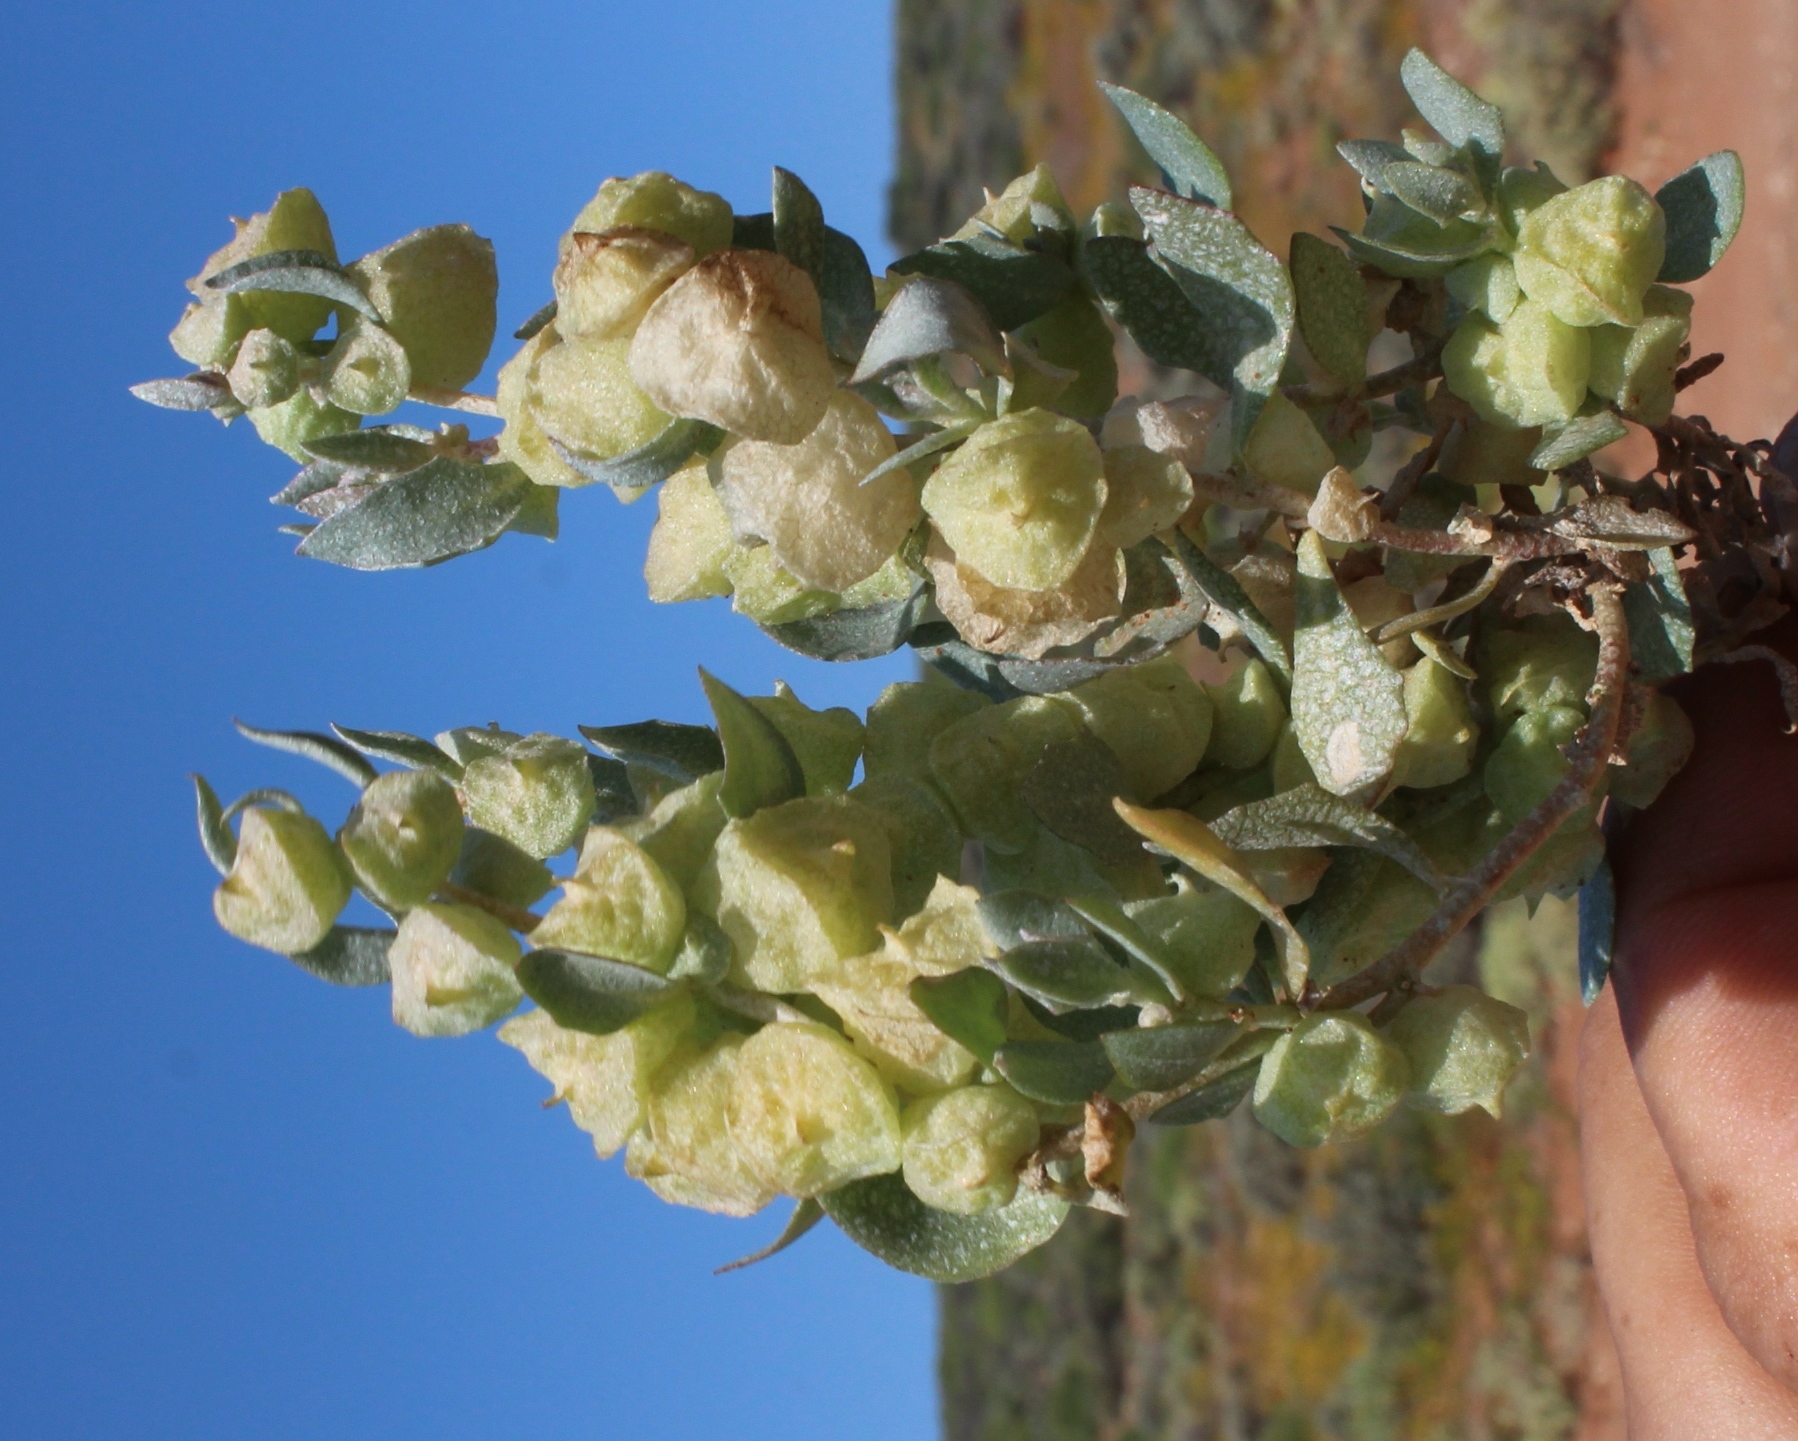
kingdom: Plantae
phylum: Tracheophyta
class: Magnoliopsida
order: Caryophyllales
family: Amaranthaceae
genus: Atriplex
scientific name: Atriplex lindleyi
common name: Lindley's saltbush
